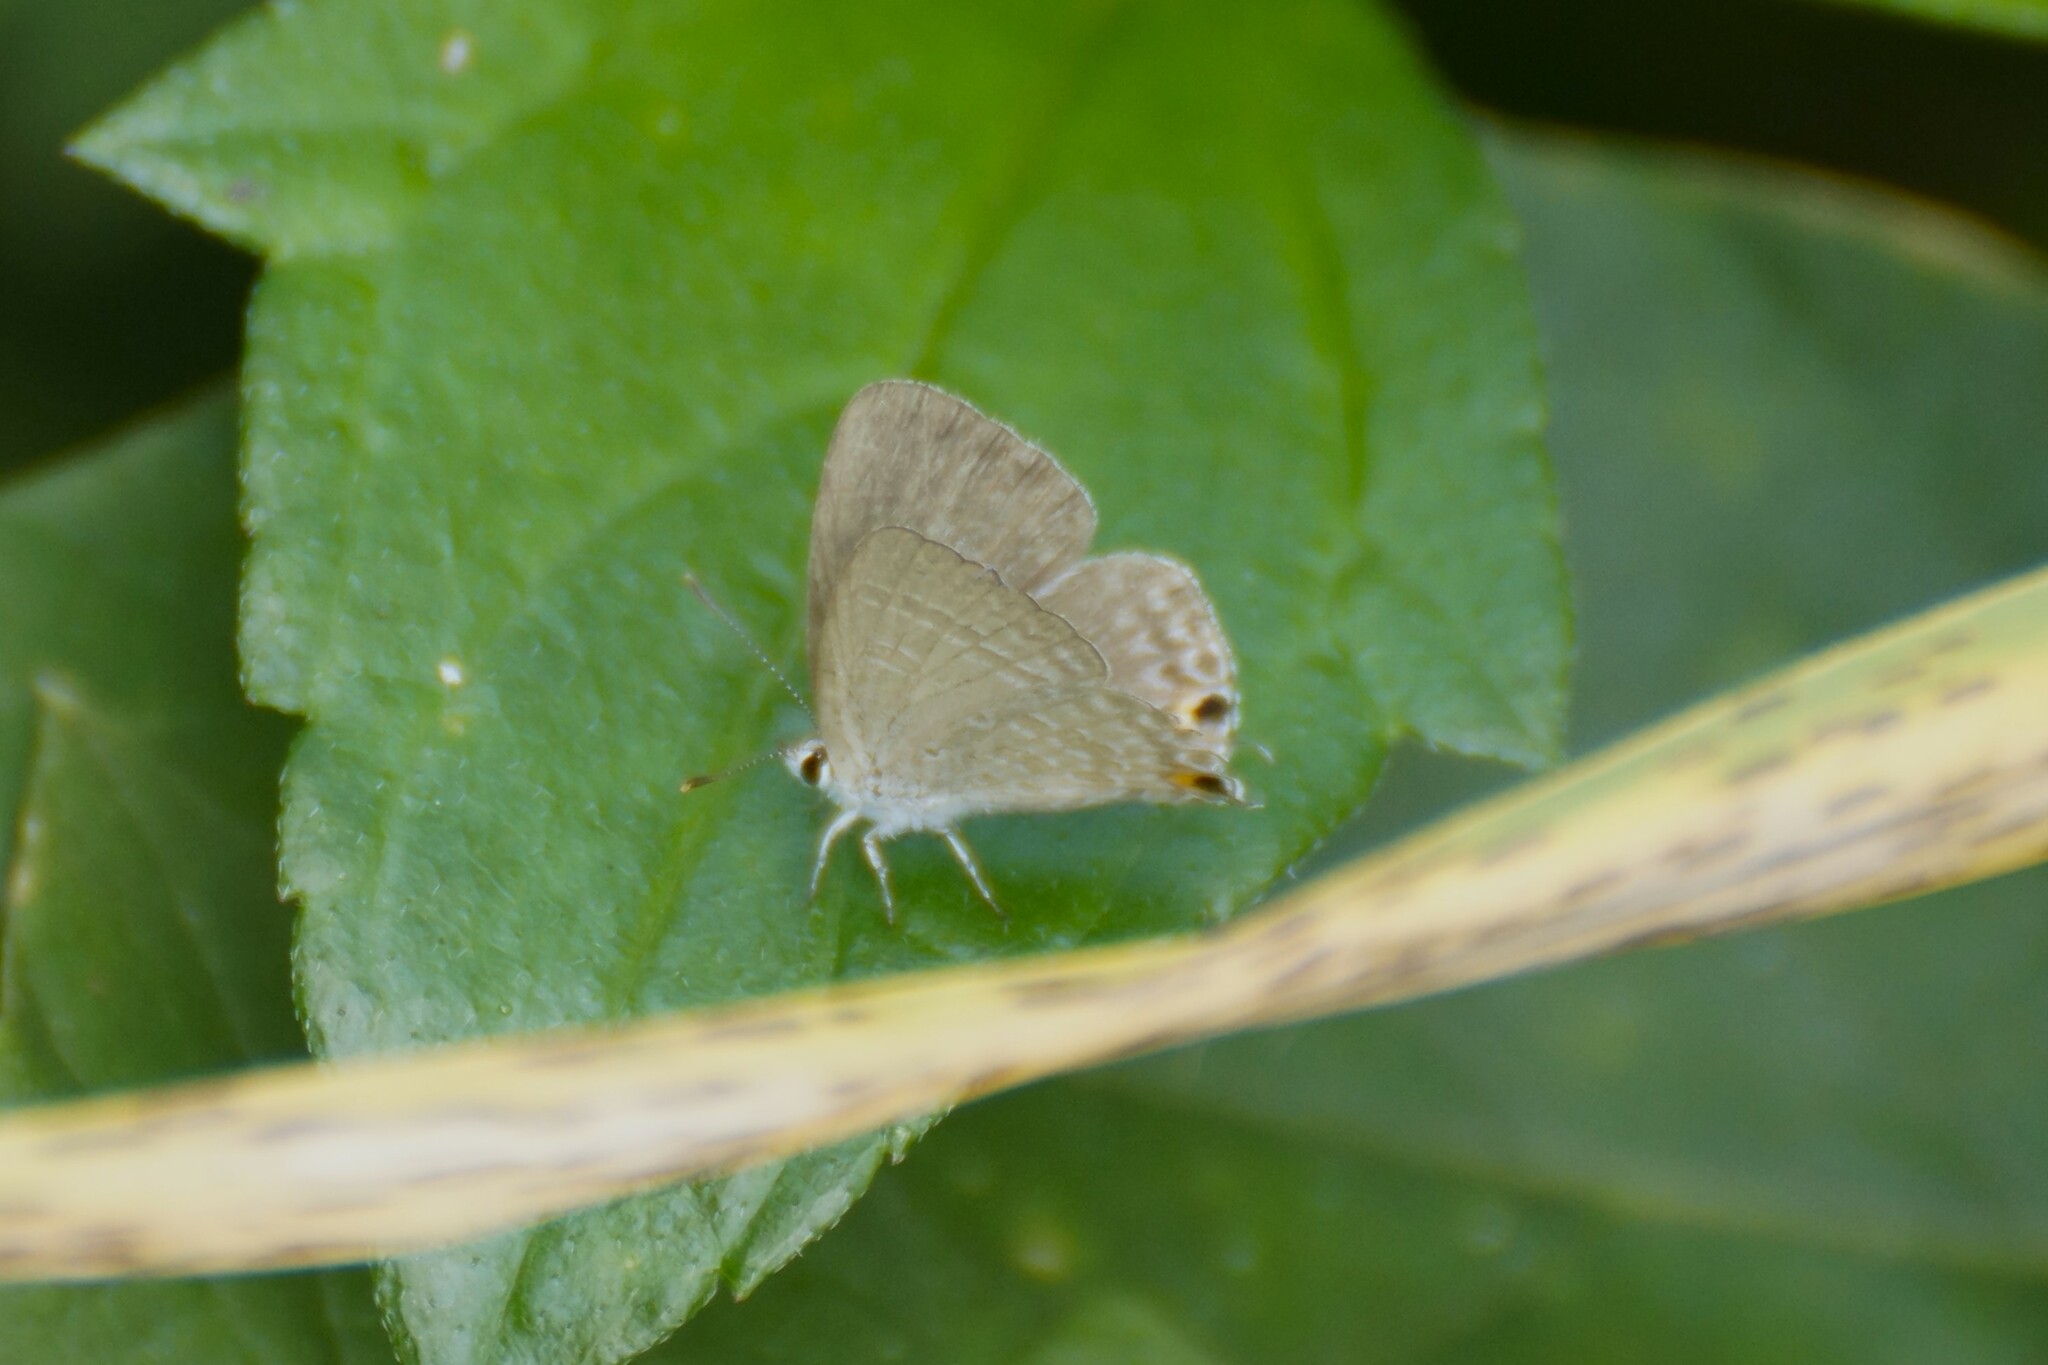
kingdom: Animalia
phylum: Arthropoda
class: Insecta
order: Lepidoptera
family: Lycaenidae
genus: Catochrysops
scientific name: Catochrysops panormus
